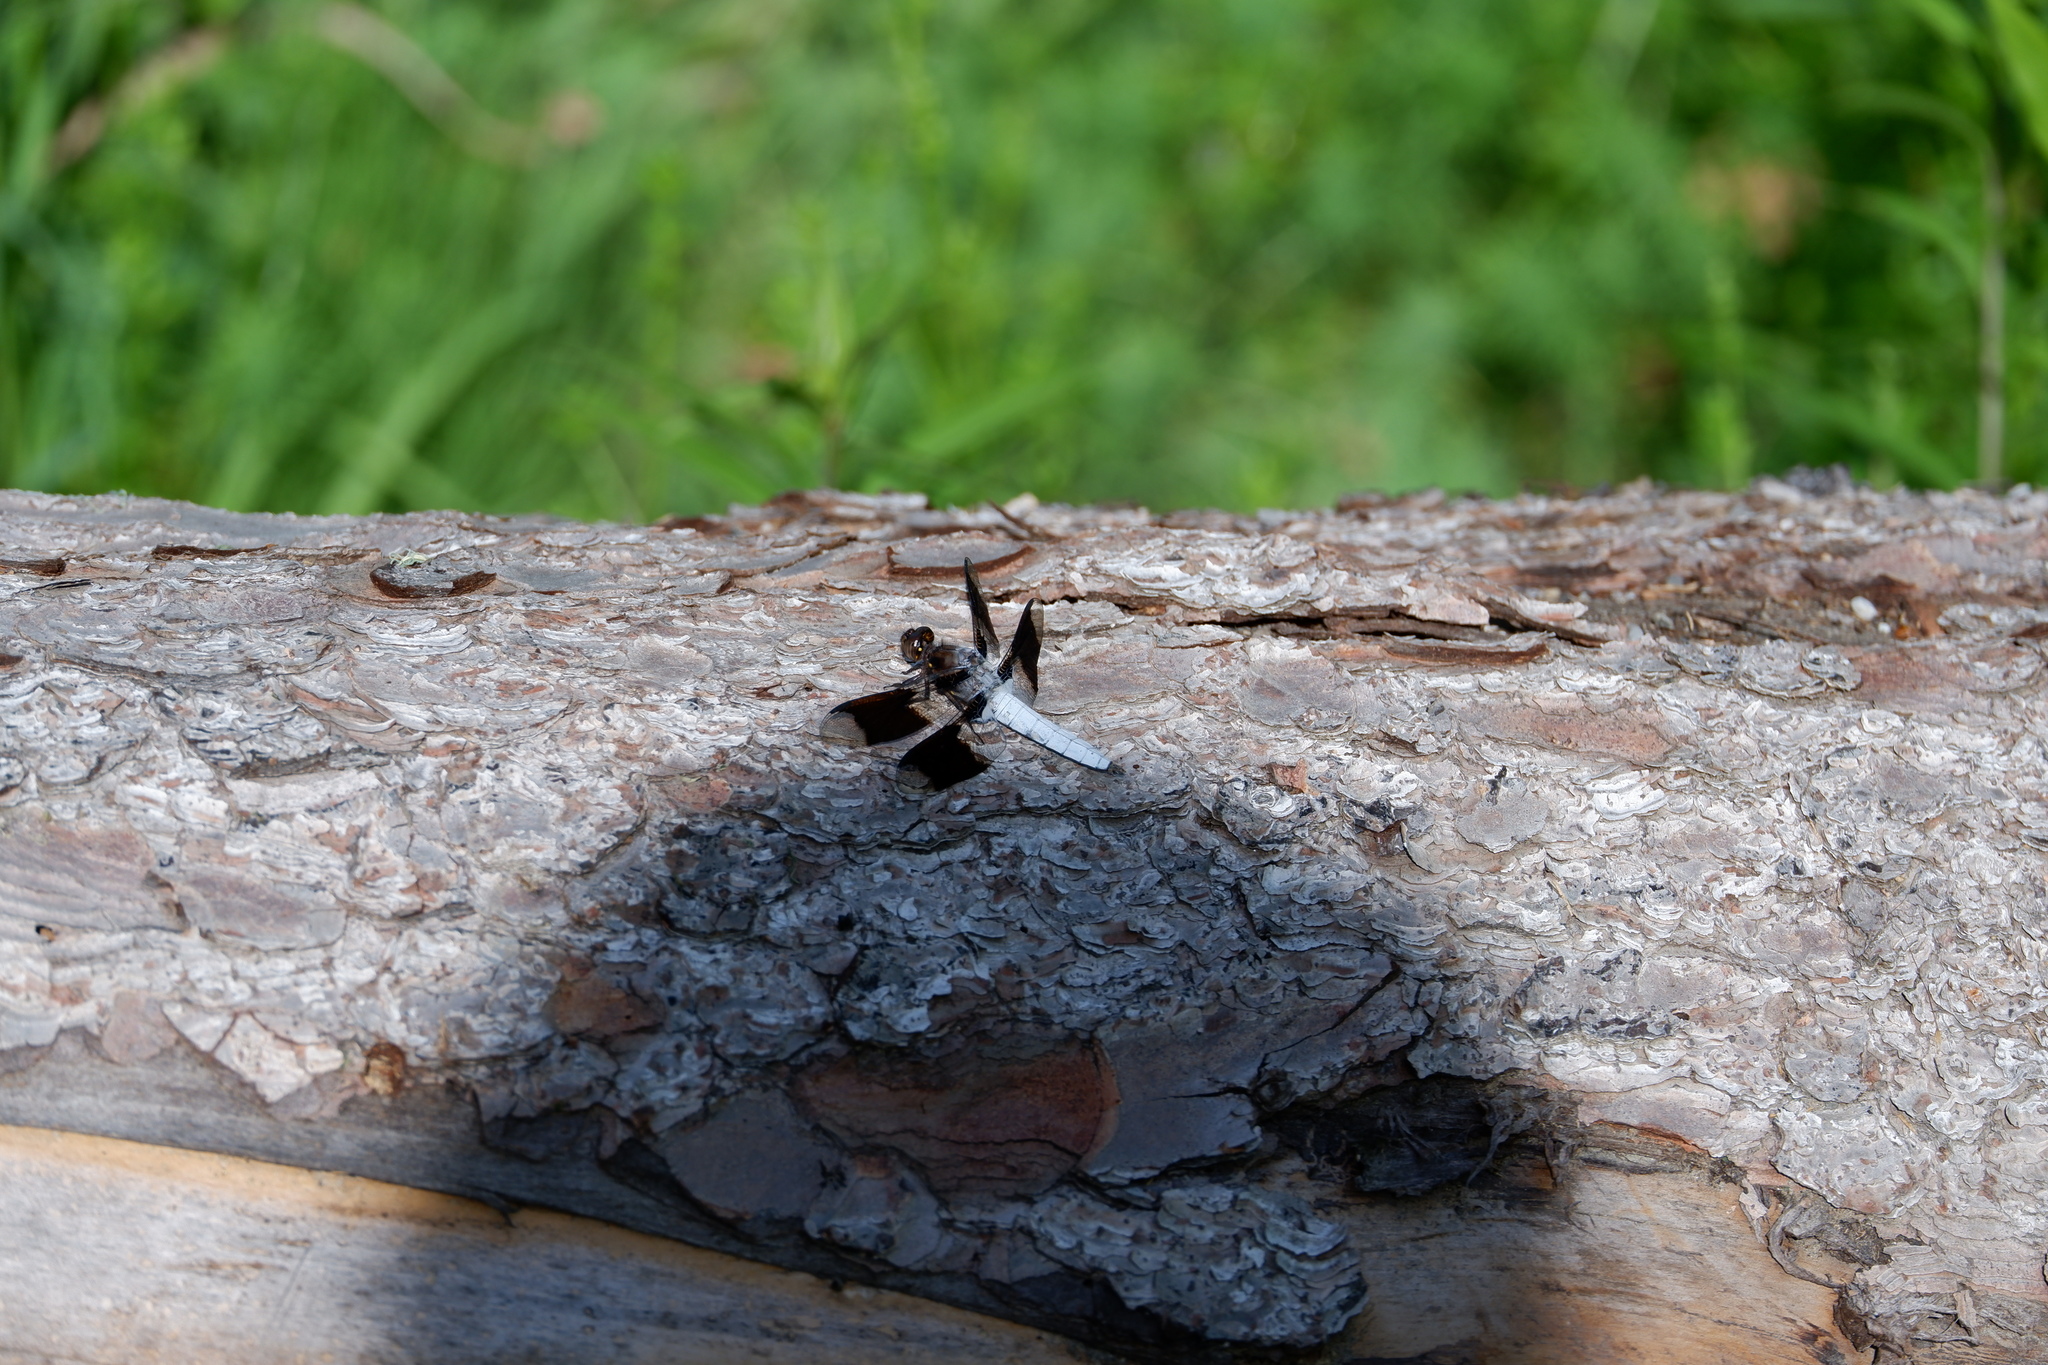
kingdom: Animalia
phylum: Arthropoda
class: Insecta
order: Odonata
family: Libellulidae
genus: Plathemis
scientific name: Plathemis lydia
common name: Common whitetail
